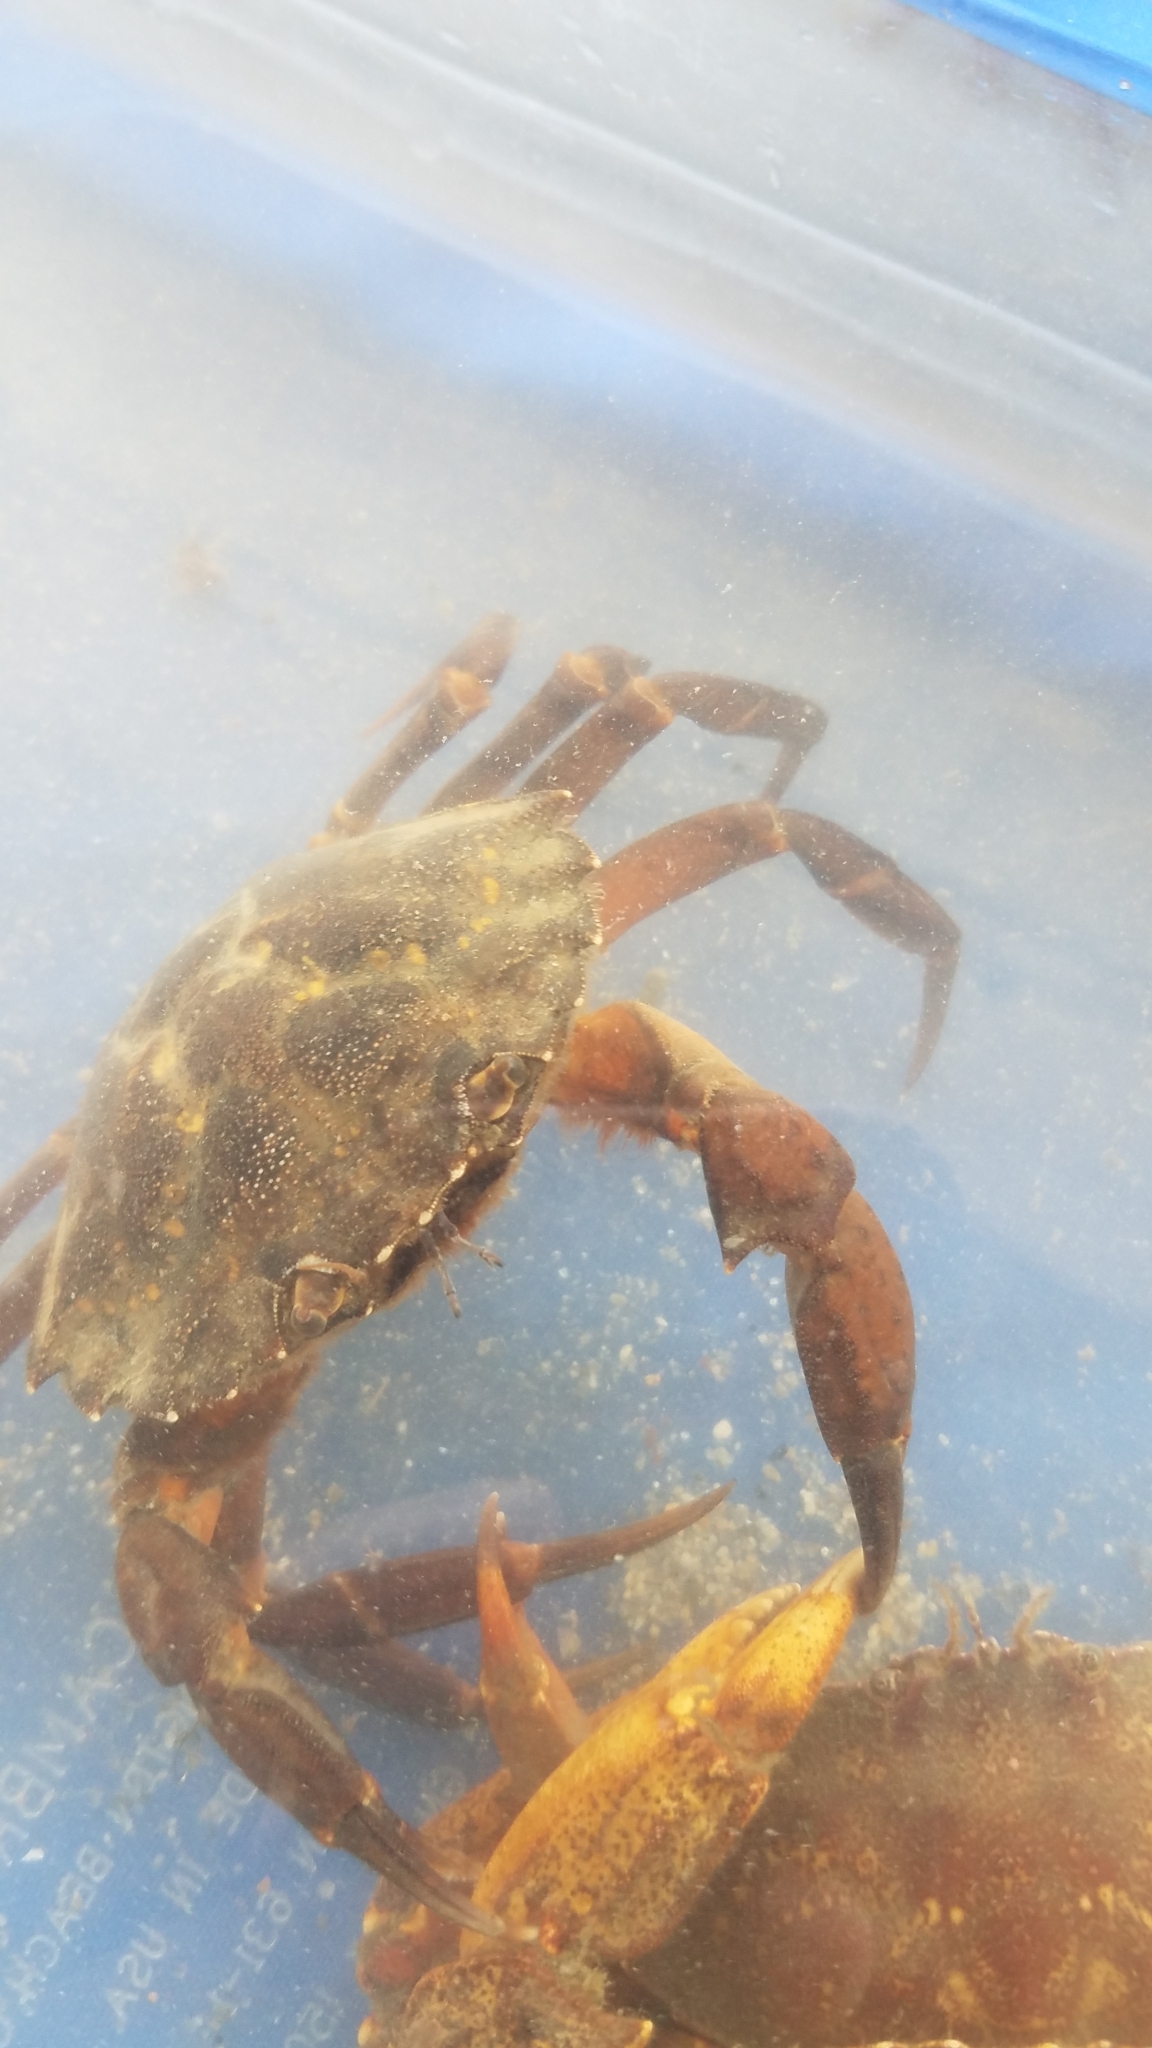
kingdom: Animalia
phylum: Arthropoda
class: Malacostraca
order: Decapoda
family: Carcinidae
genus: Carcinus
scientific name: Carcinus maenas
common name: European green crab
